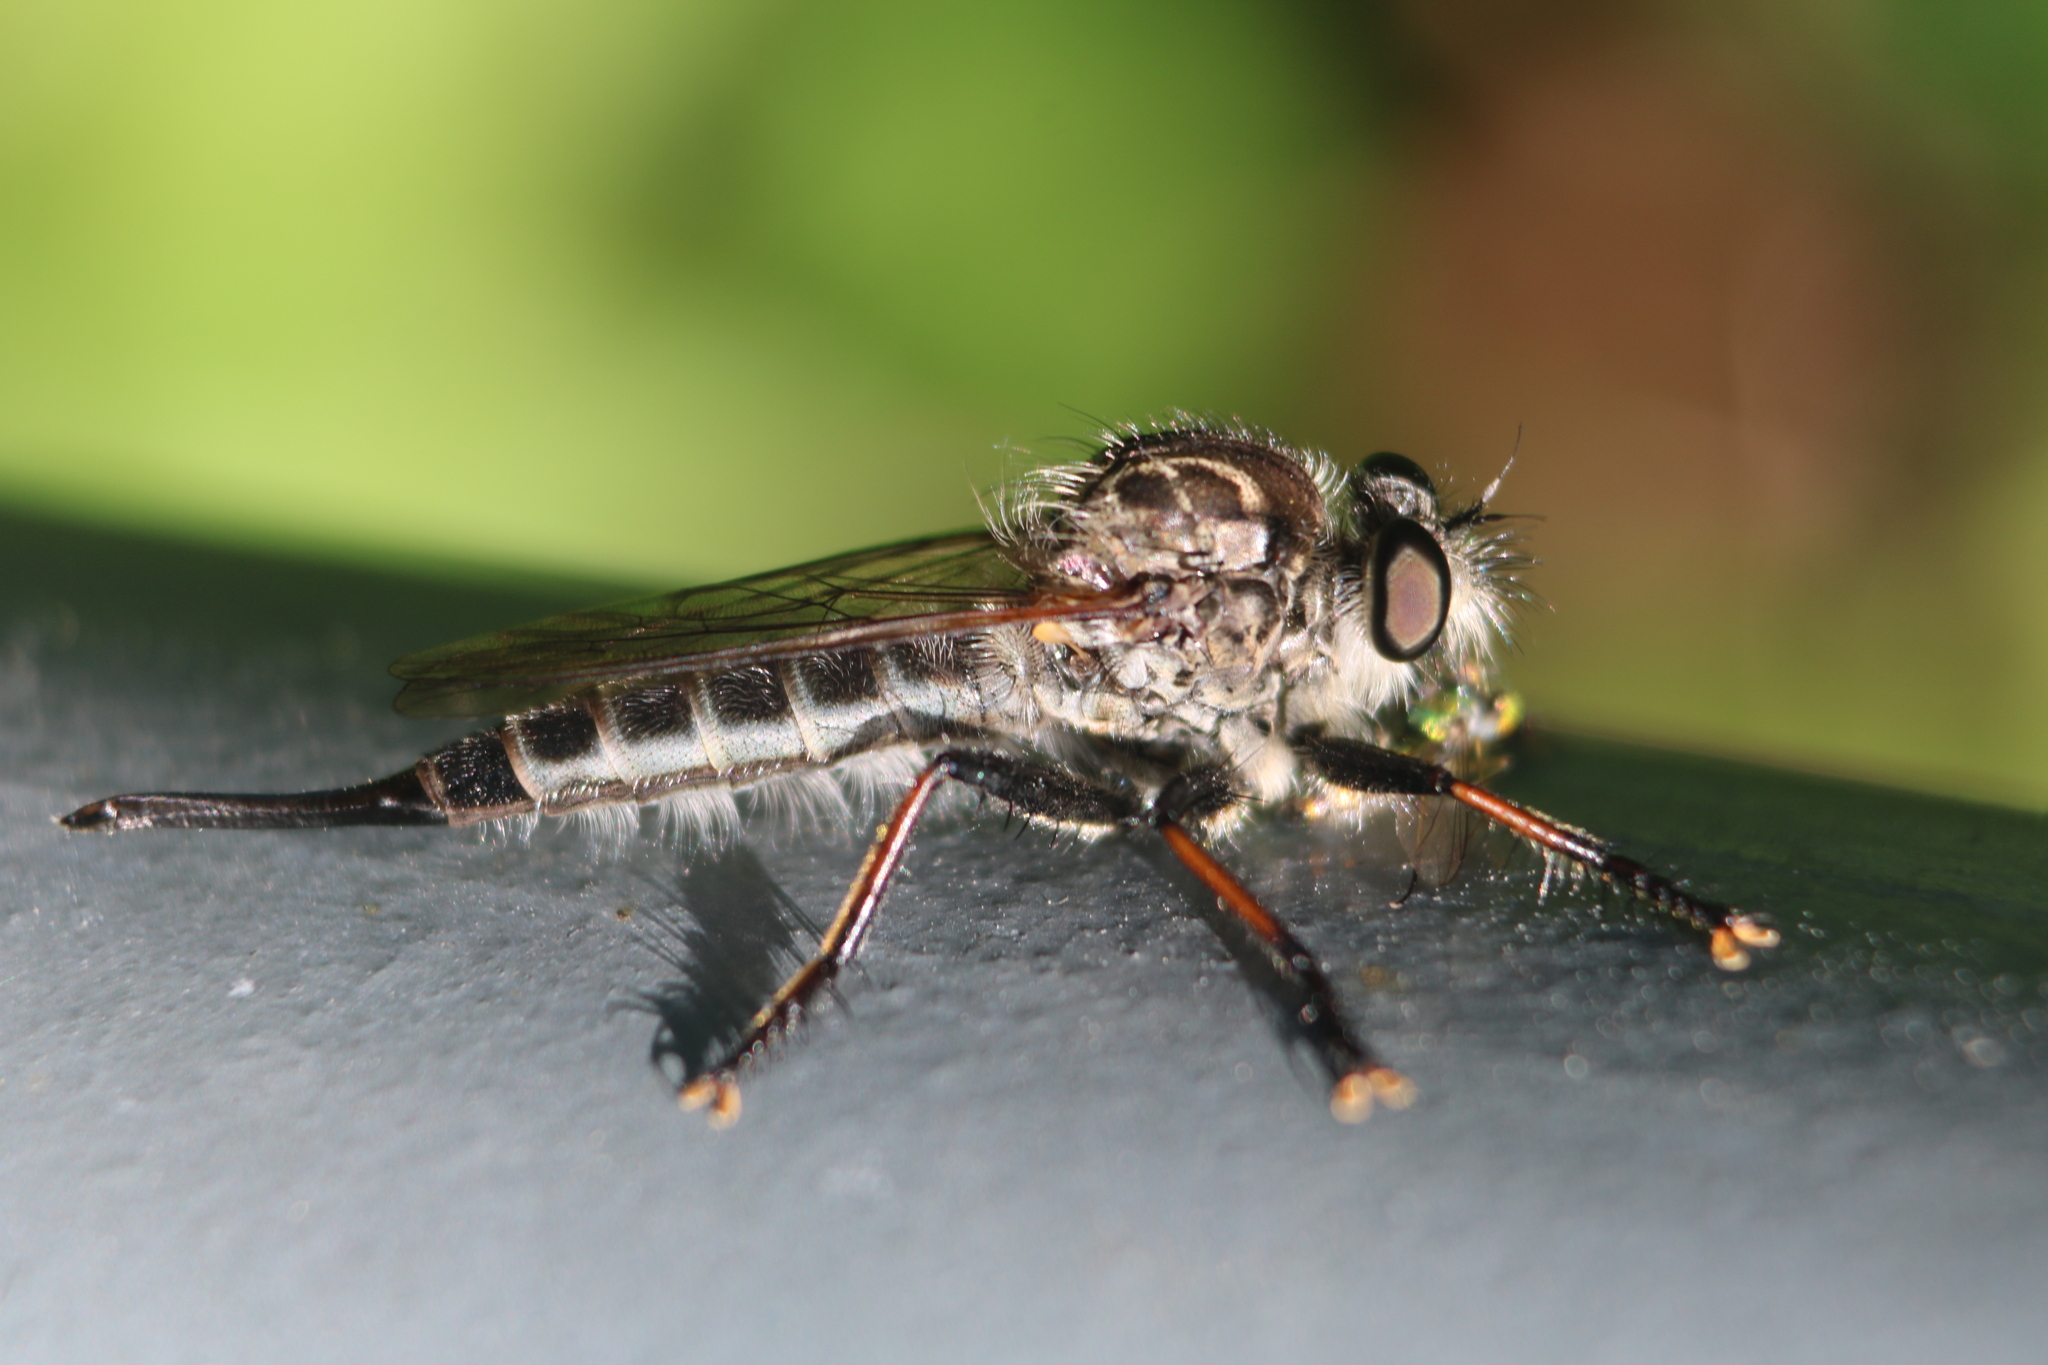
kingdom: Animalia
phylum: Arthropoda
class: Insecta
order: Diptera
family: Asilidae
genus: Efferia
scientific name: Efferia aestuans
